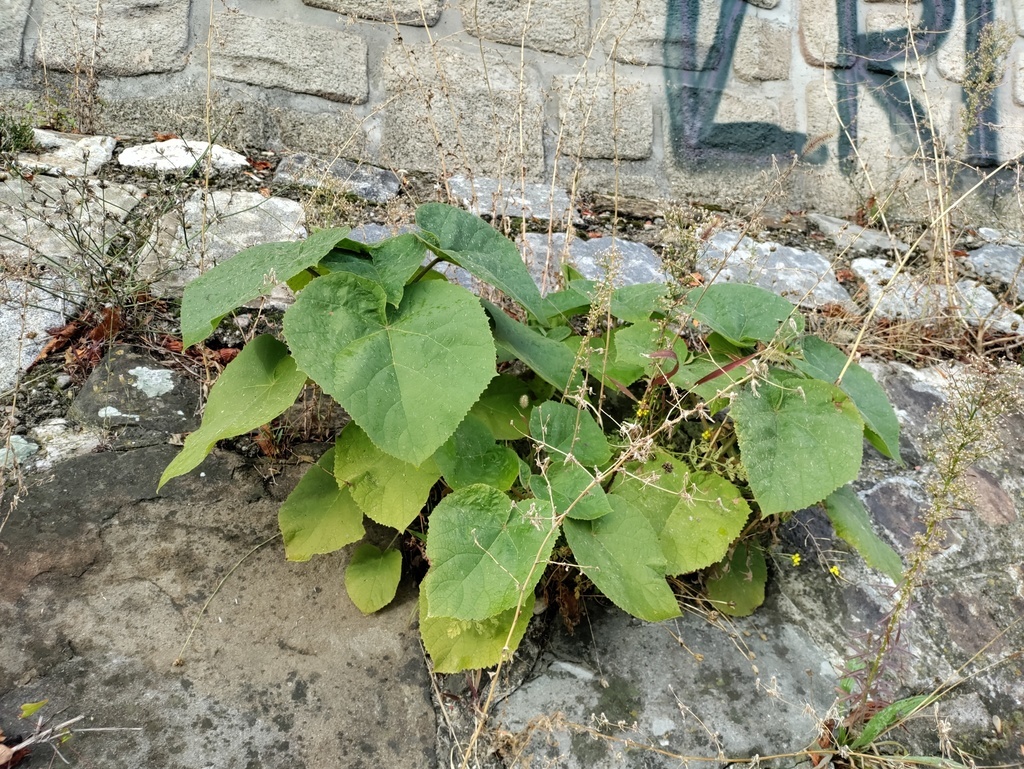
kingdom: Plantae
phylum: Tracheophyta
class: Magnoliopsida
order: Lamiales
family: Paulowniaceae
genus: Paulownia
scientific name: Paulownia tomentosa
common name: Foxglove-tree
